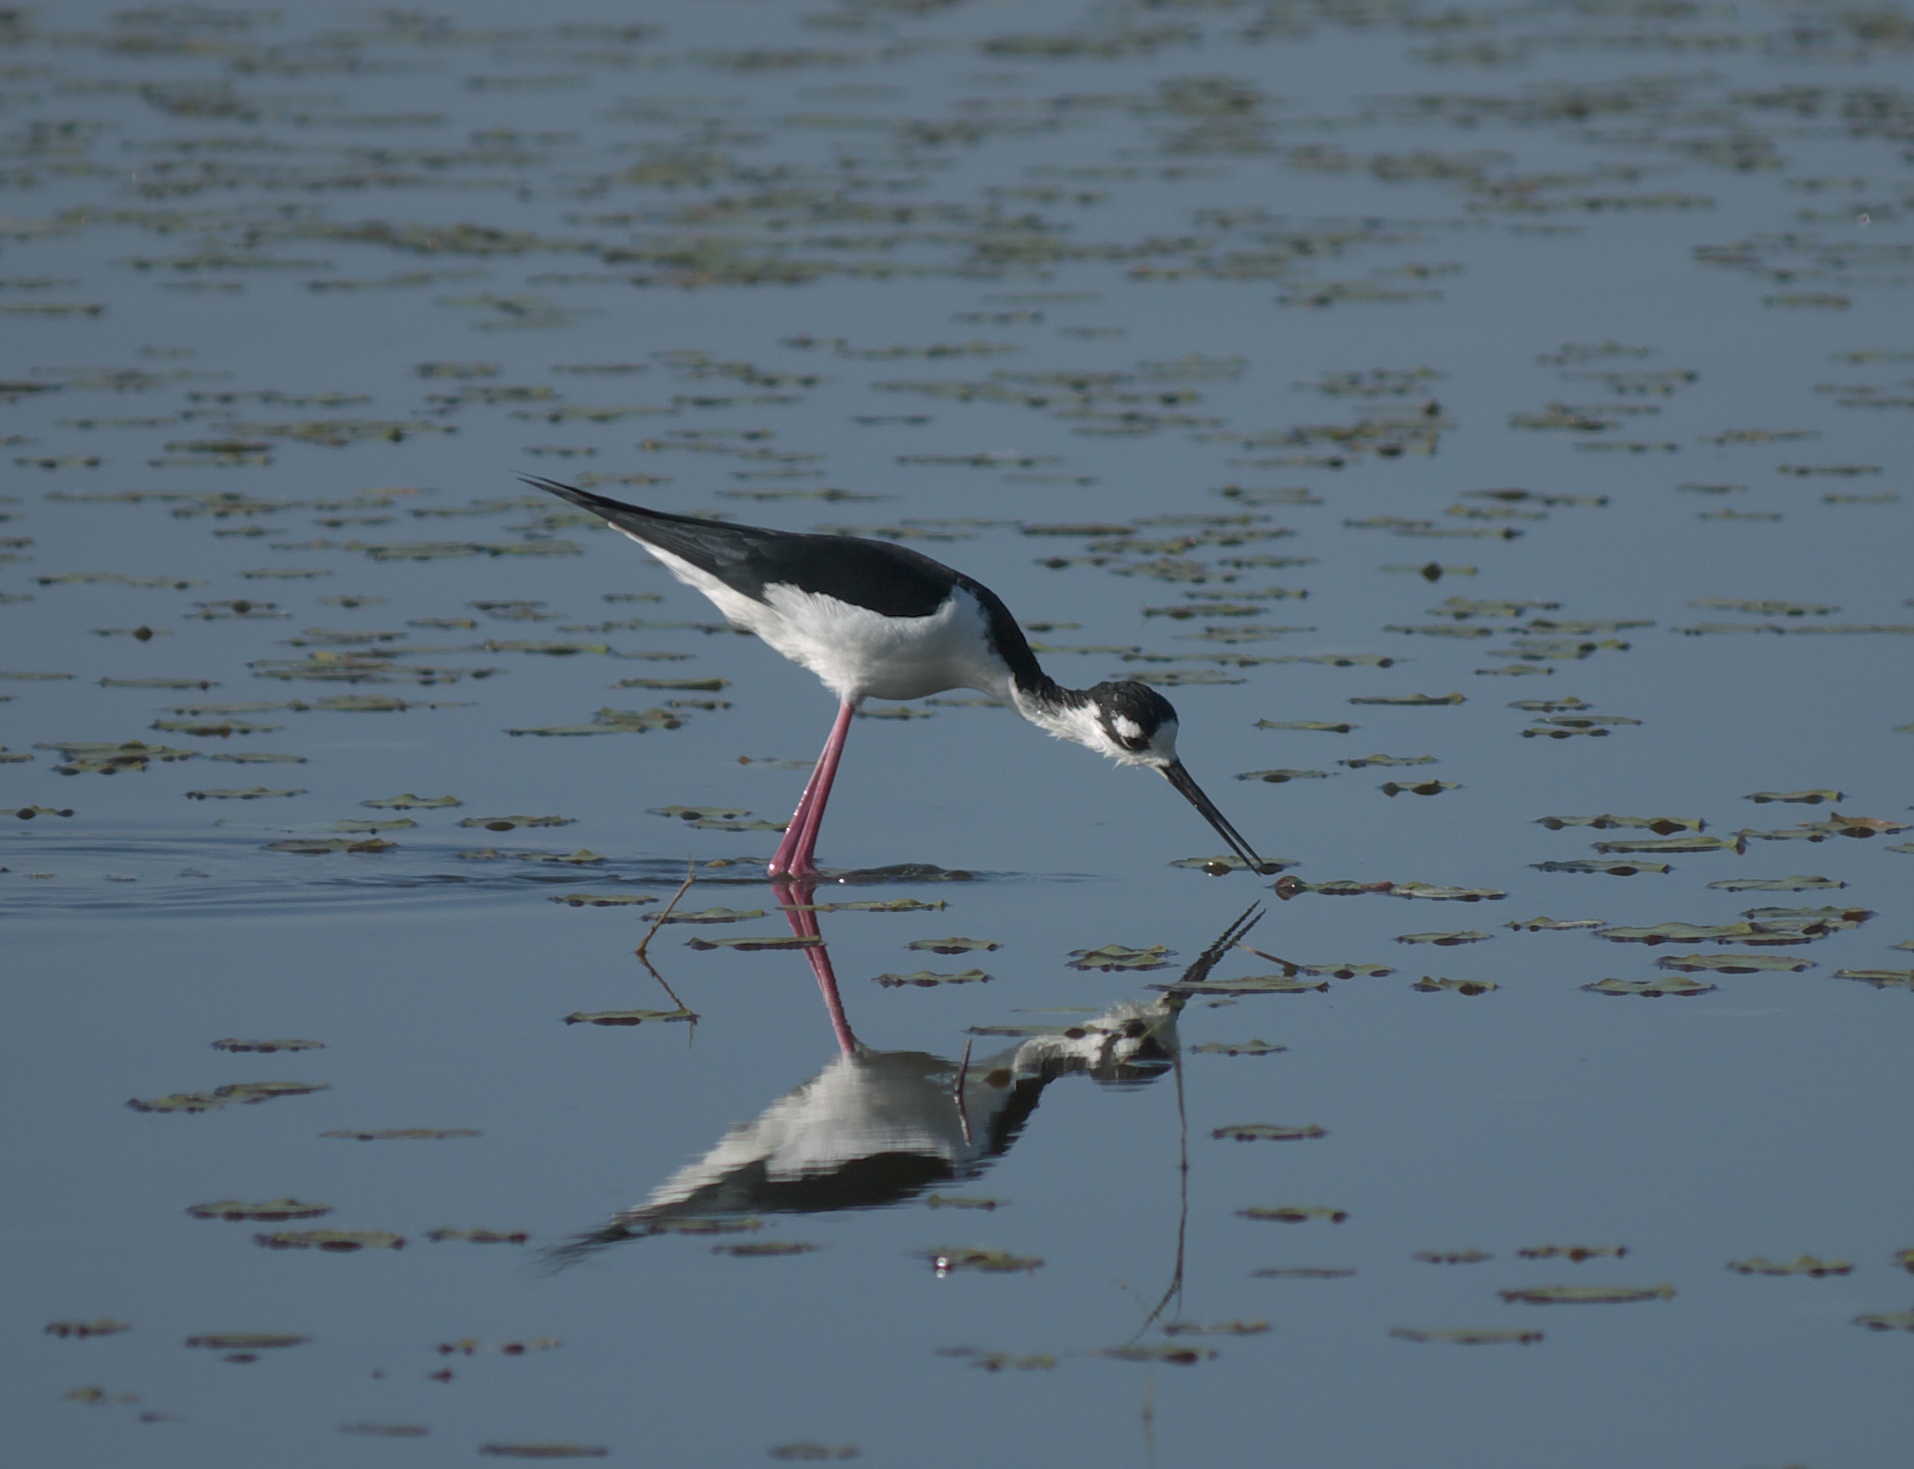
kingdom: Animalia
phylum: Chordata
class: Aves
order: Charadriiformes
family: Recurvirostridae
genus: Himantopus
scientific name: Himantopus mexicanus
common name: Black-necked stilt
